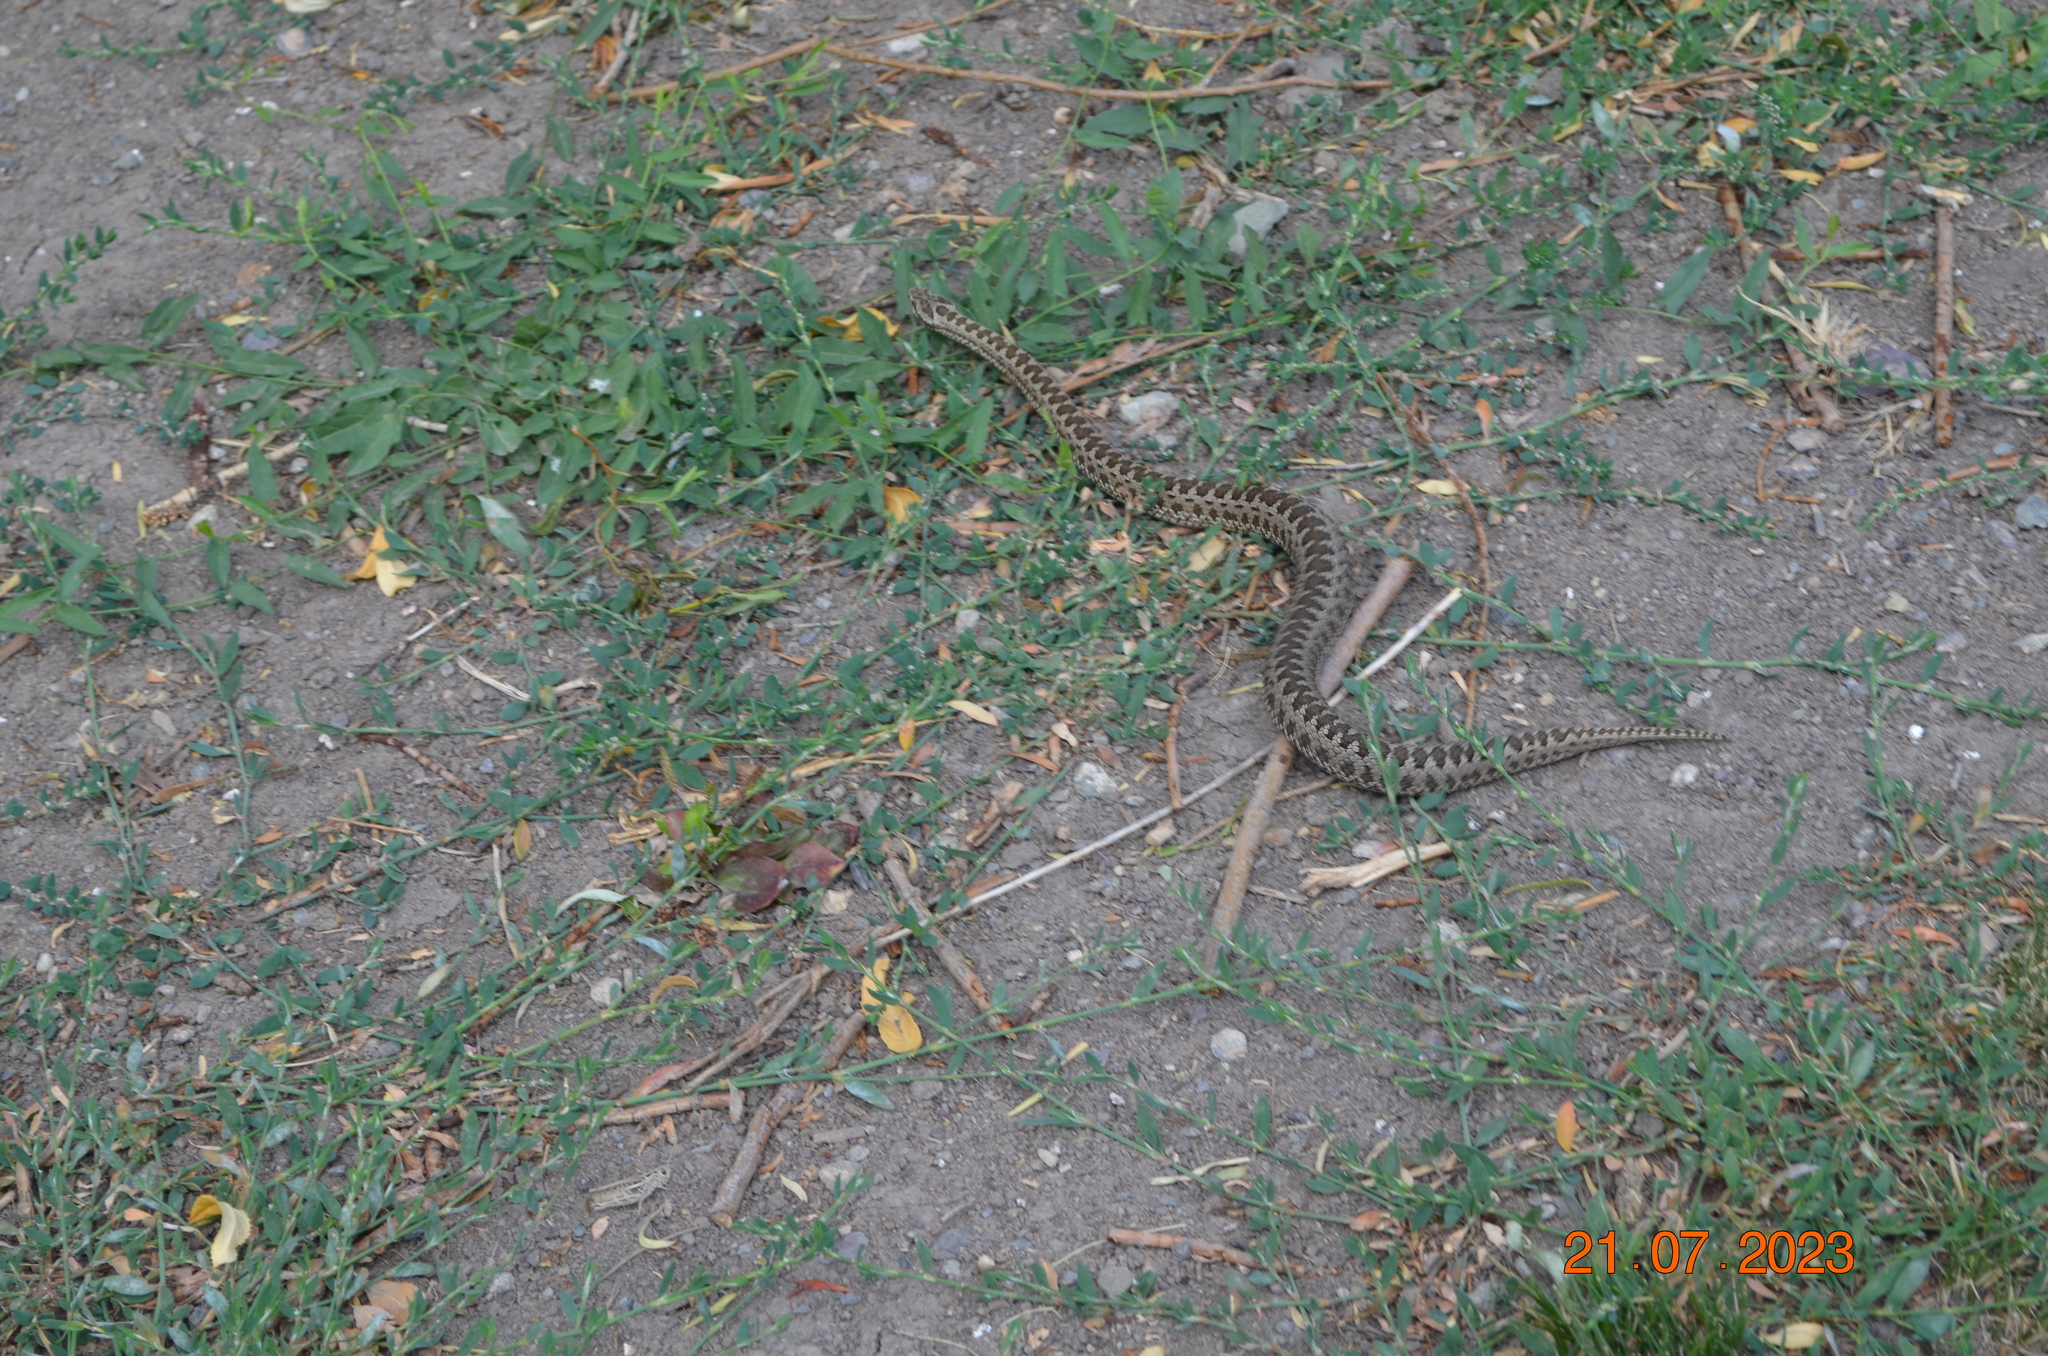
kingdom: Animalia
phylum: Chordata
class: Squamata
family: Viperidae
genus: Vipera
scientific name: Vipera renardi
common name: Eastern steppe viper
